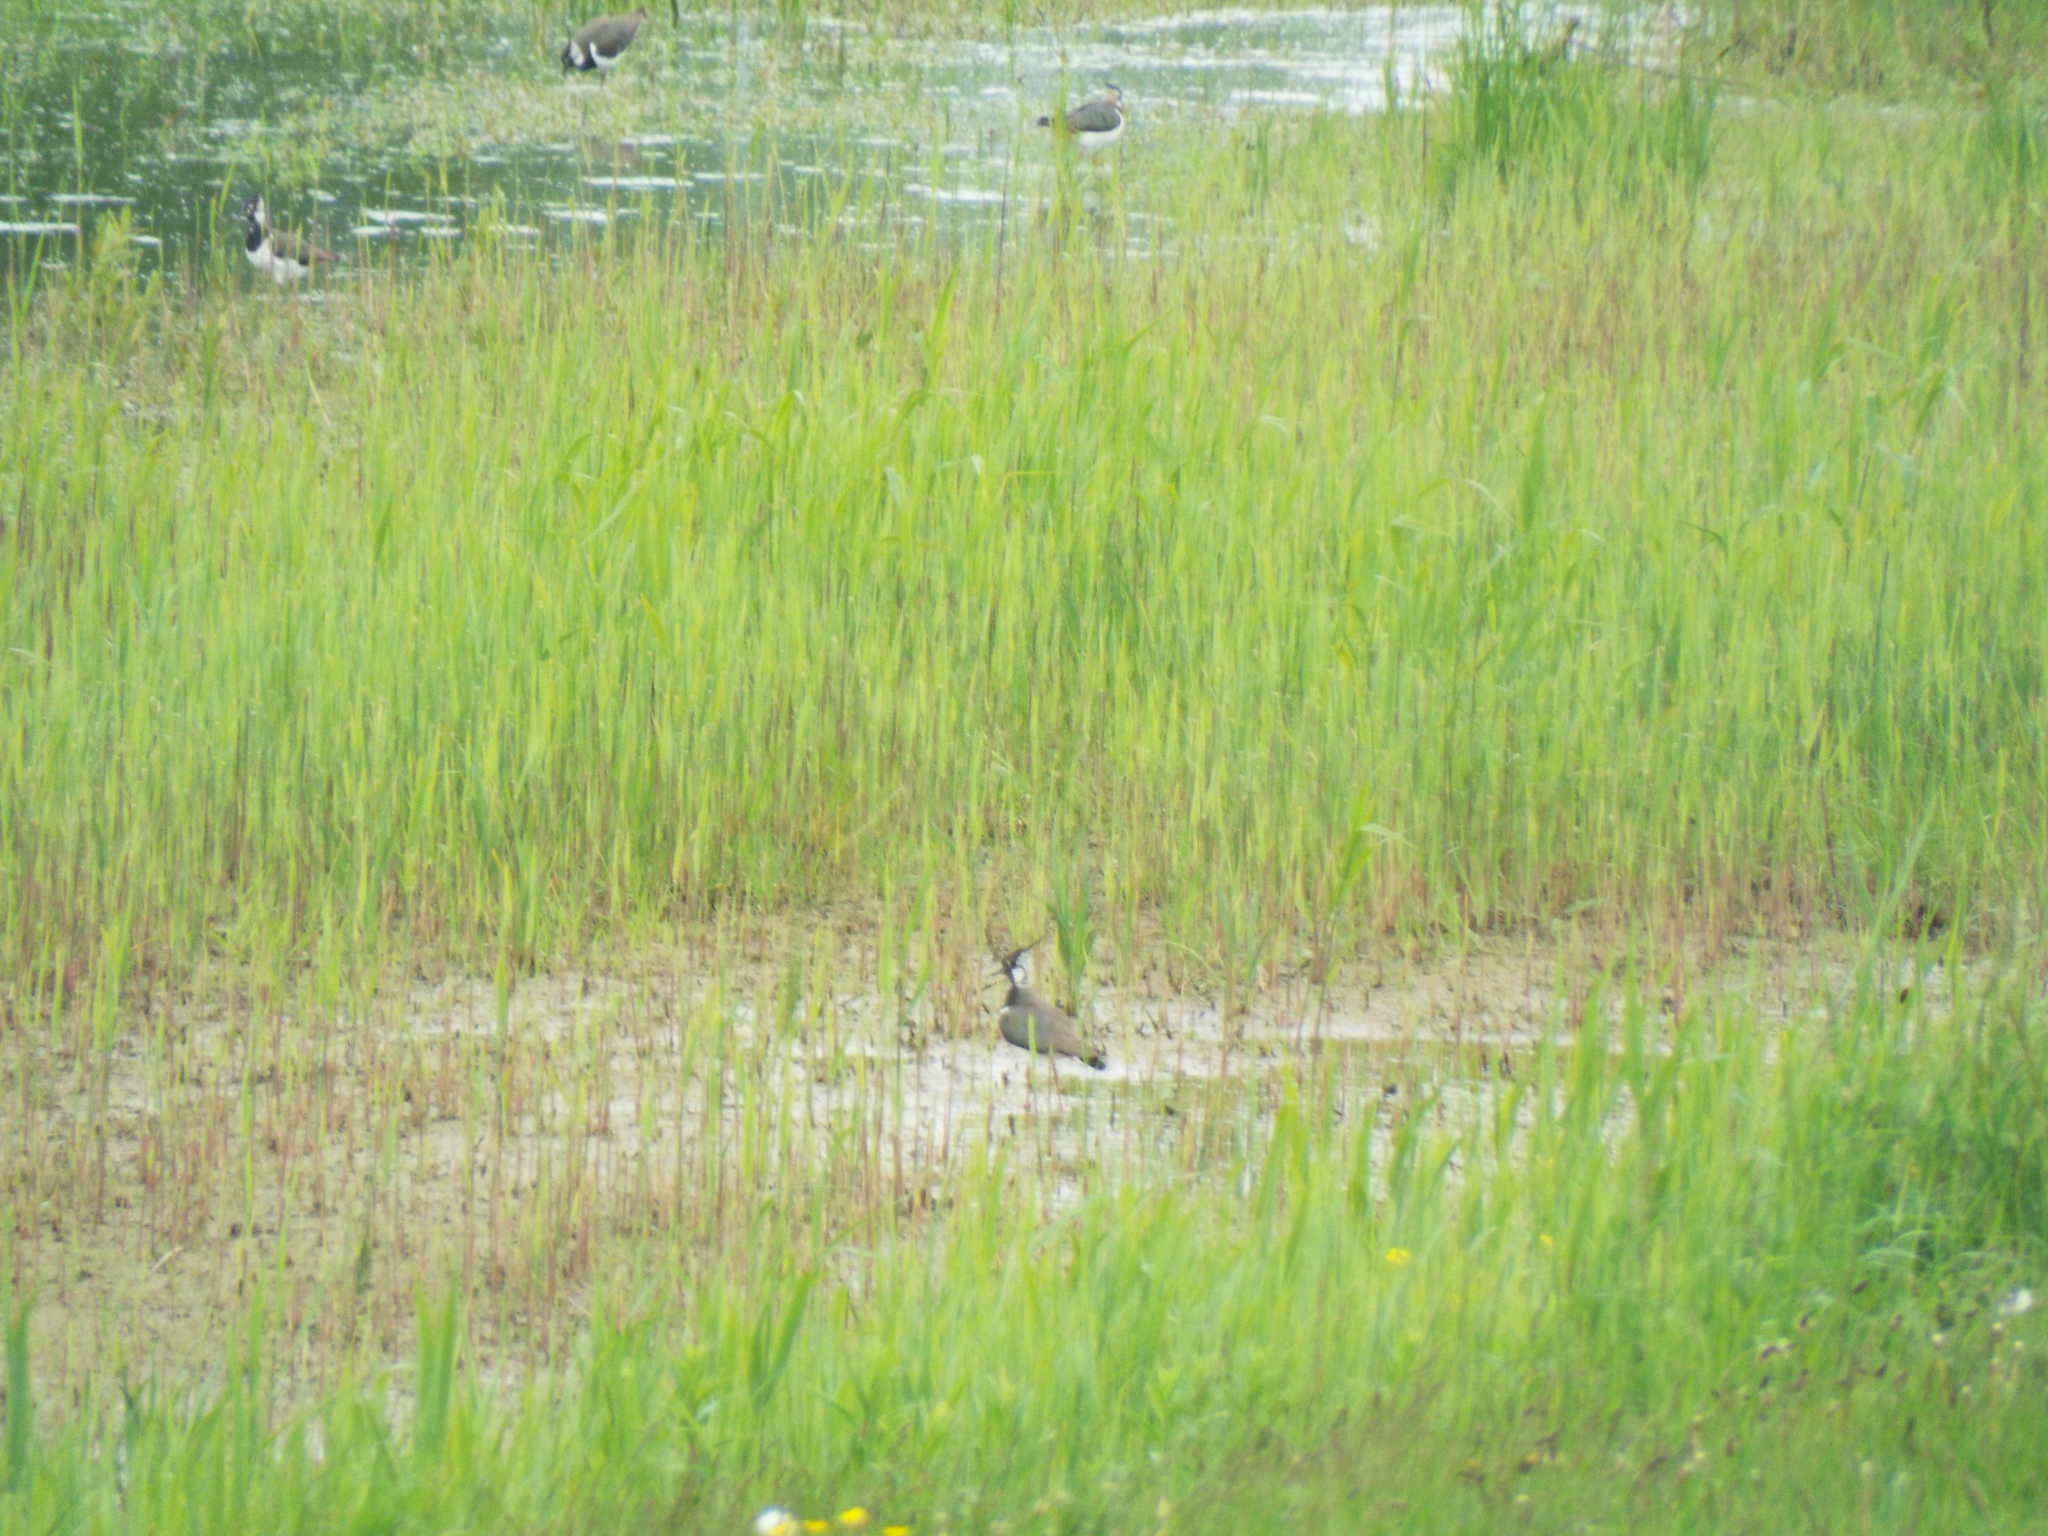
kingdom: Animalia
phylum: Chordata
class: Aves
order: Charadriiformes
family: Charadriidae
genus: Vanellus
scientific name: Vanellus vanellus
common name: Northern lapwing
